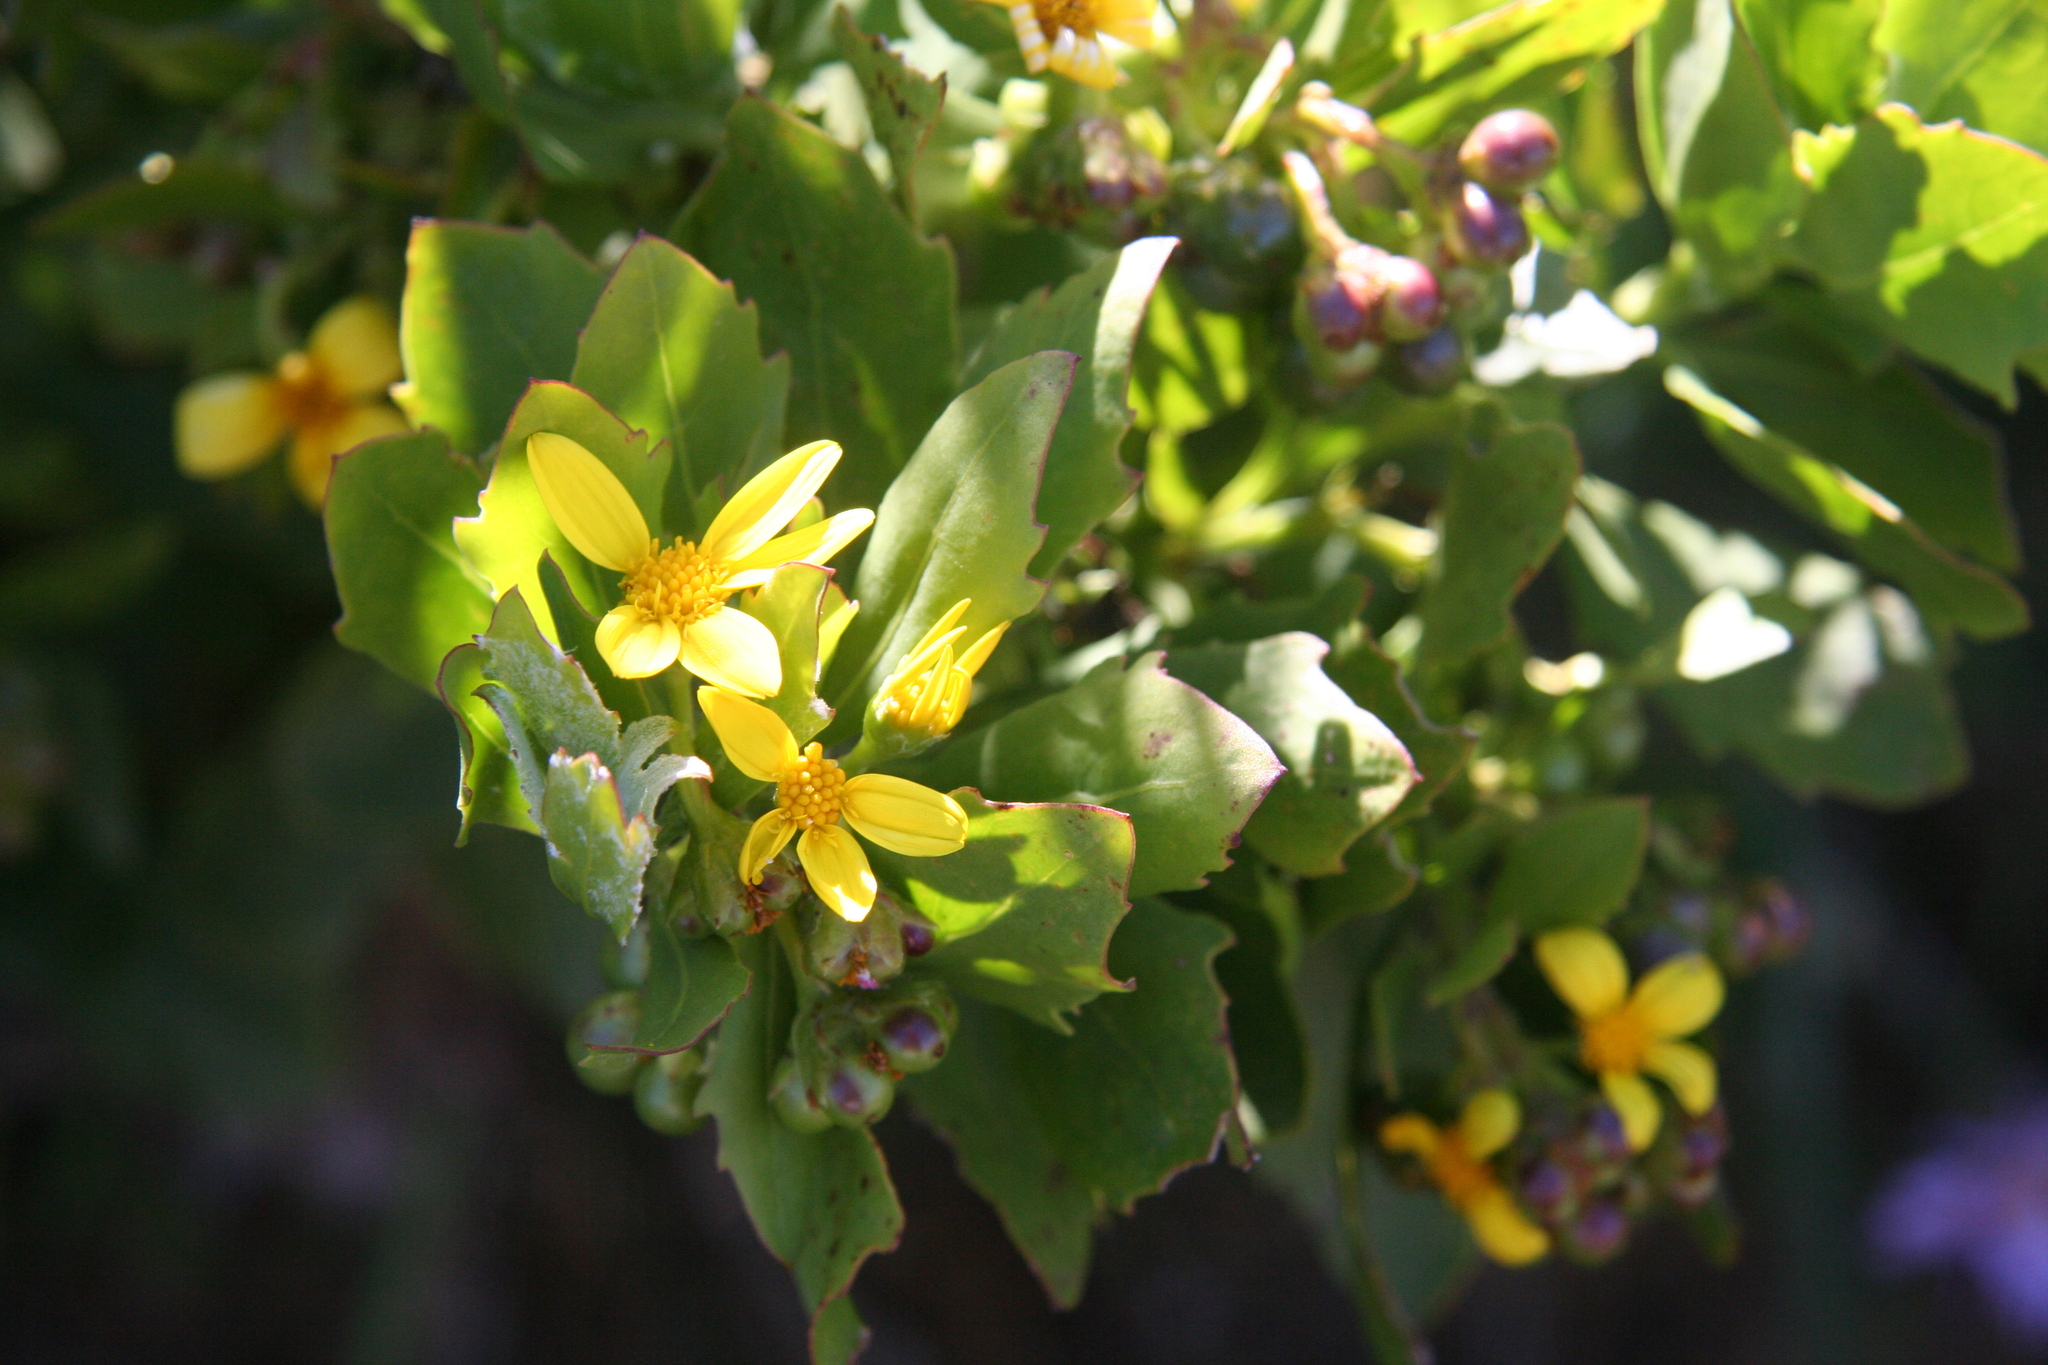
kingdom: Plantae
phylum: Tracheophyta
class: Magnoliopsida
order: Asterales
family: Asteraceae
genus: Osteospermum
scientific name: Osteospermum moniliferum
